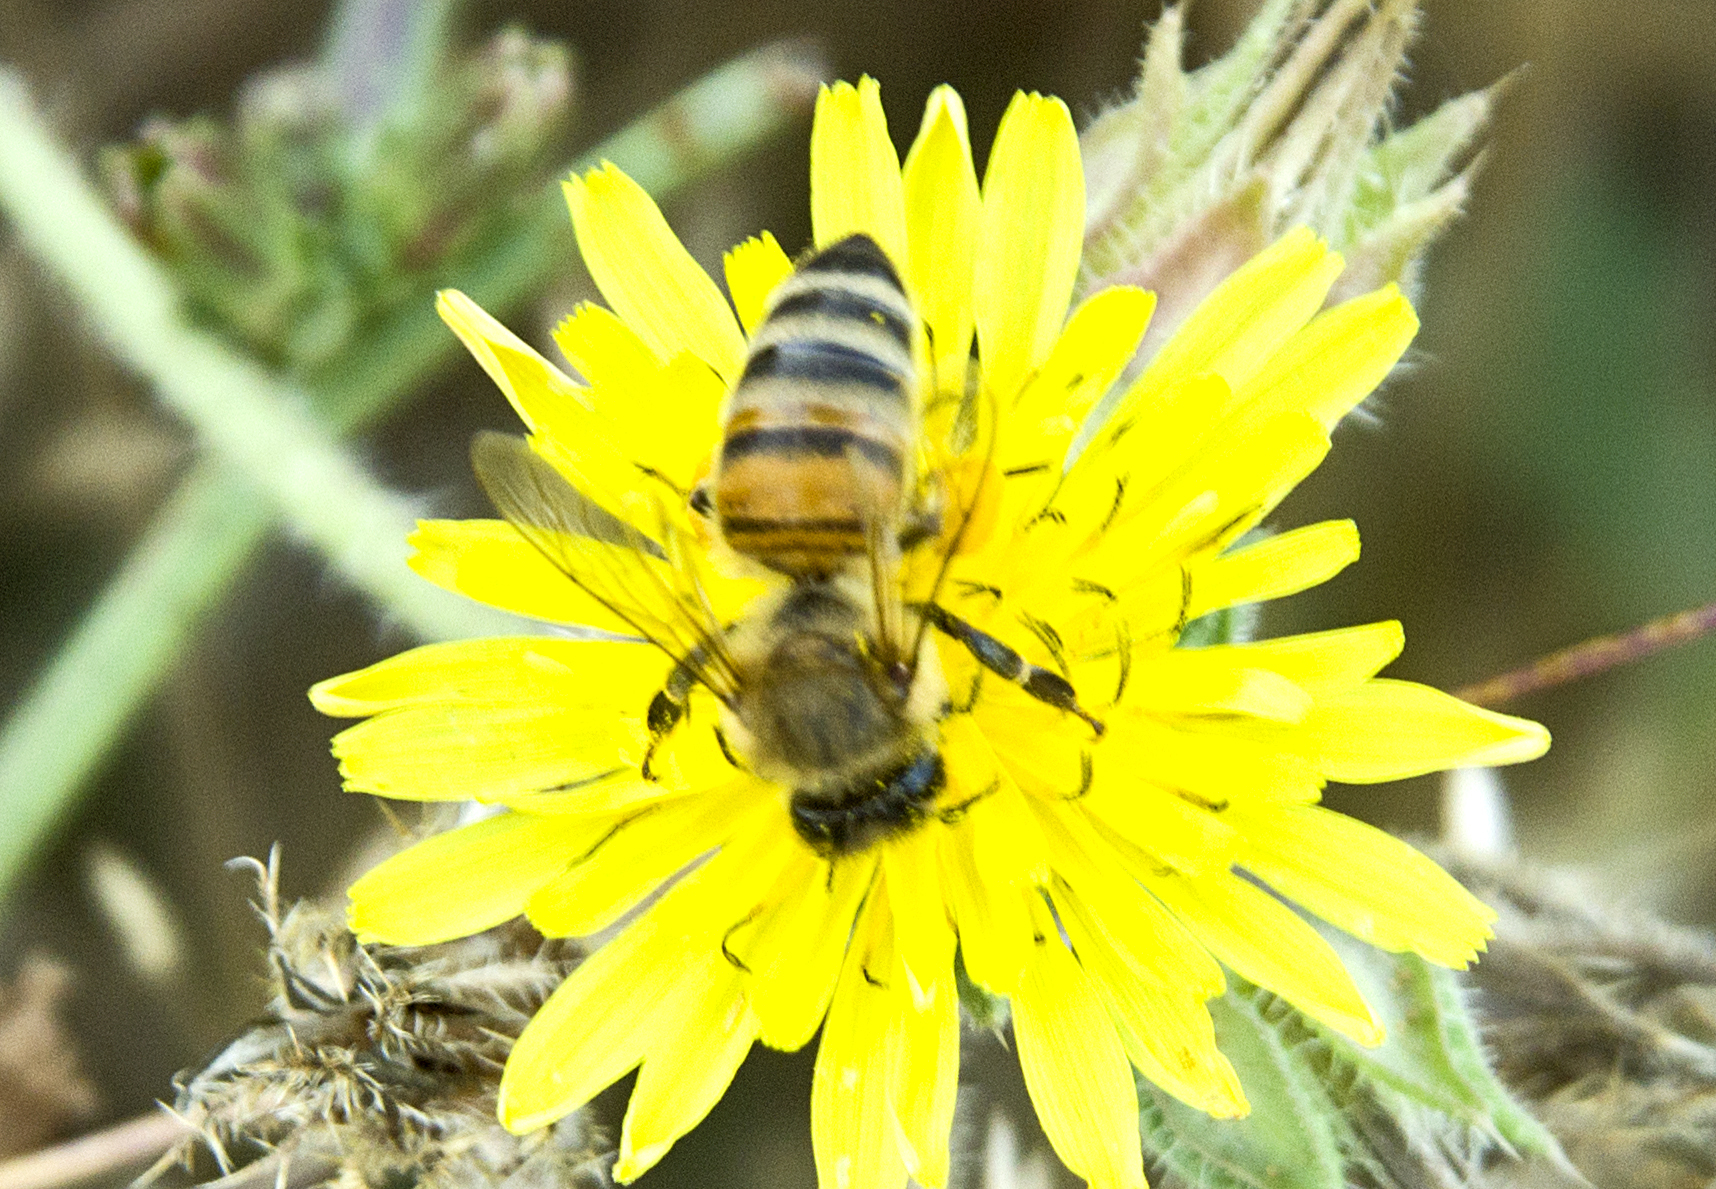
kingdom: Animalia
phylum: Arthropoda
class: Insecta
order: Hymenoptera
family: Apidae
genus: Apis
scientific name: Apis mellifera
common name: Honey bee
